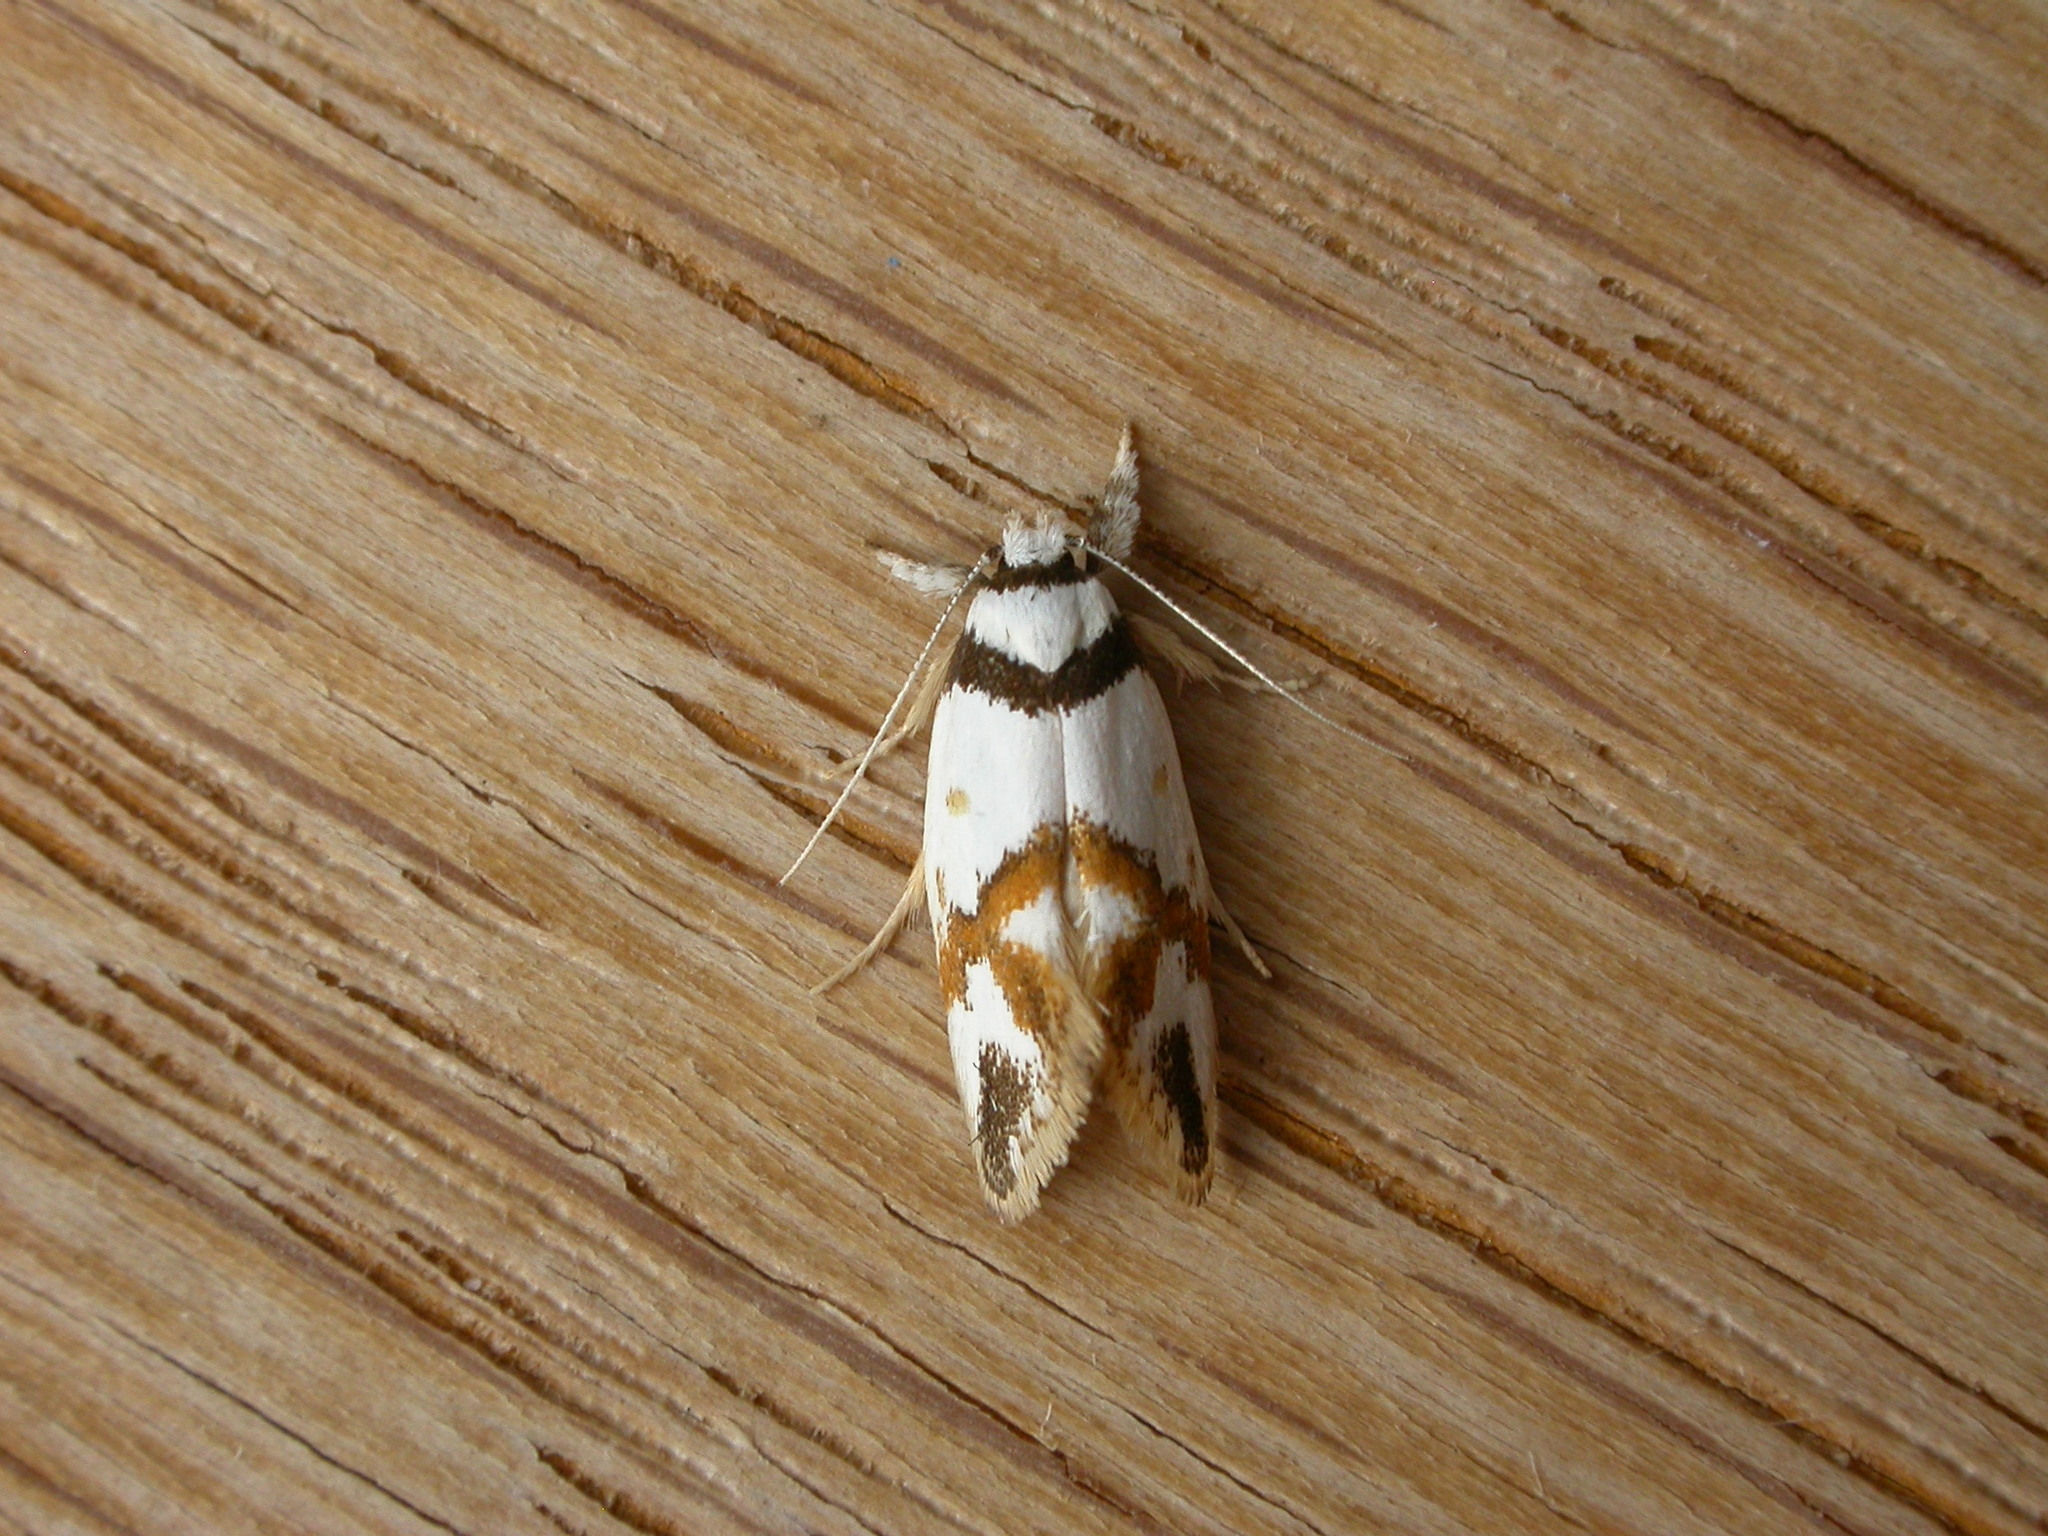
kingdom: Animalia
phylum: Arthropoda
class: Insecta
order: Lepidoptera
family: Oecophoridae
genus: Lepidotarsa
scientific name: Lepidotarsa habrodelta
